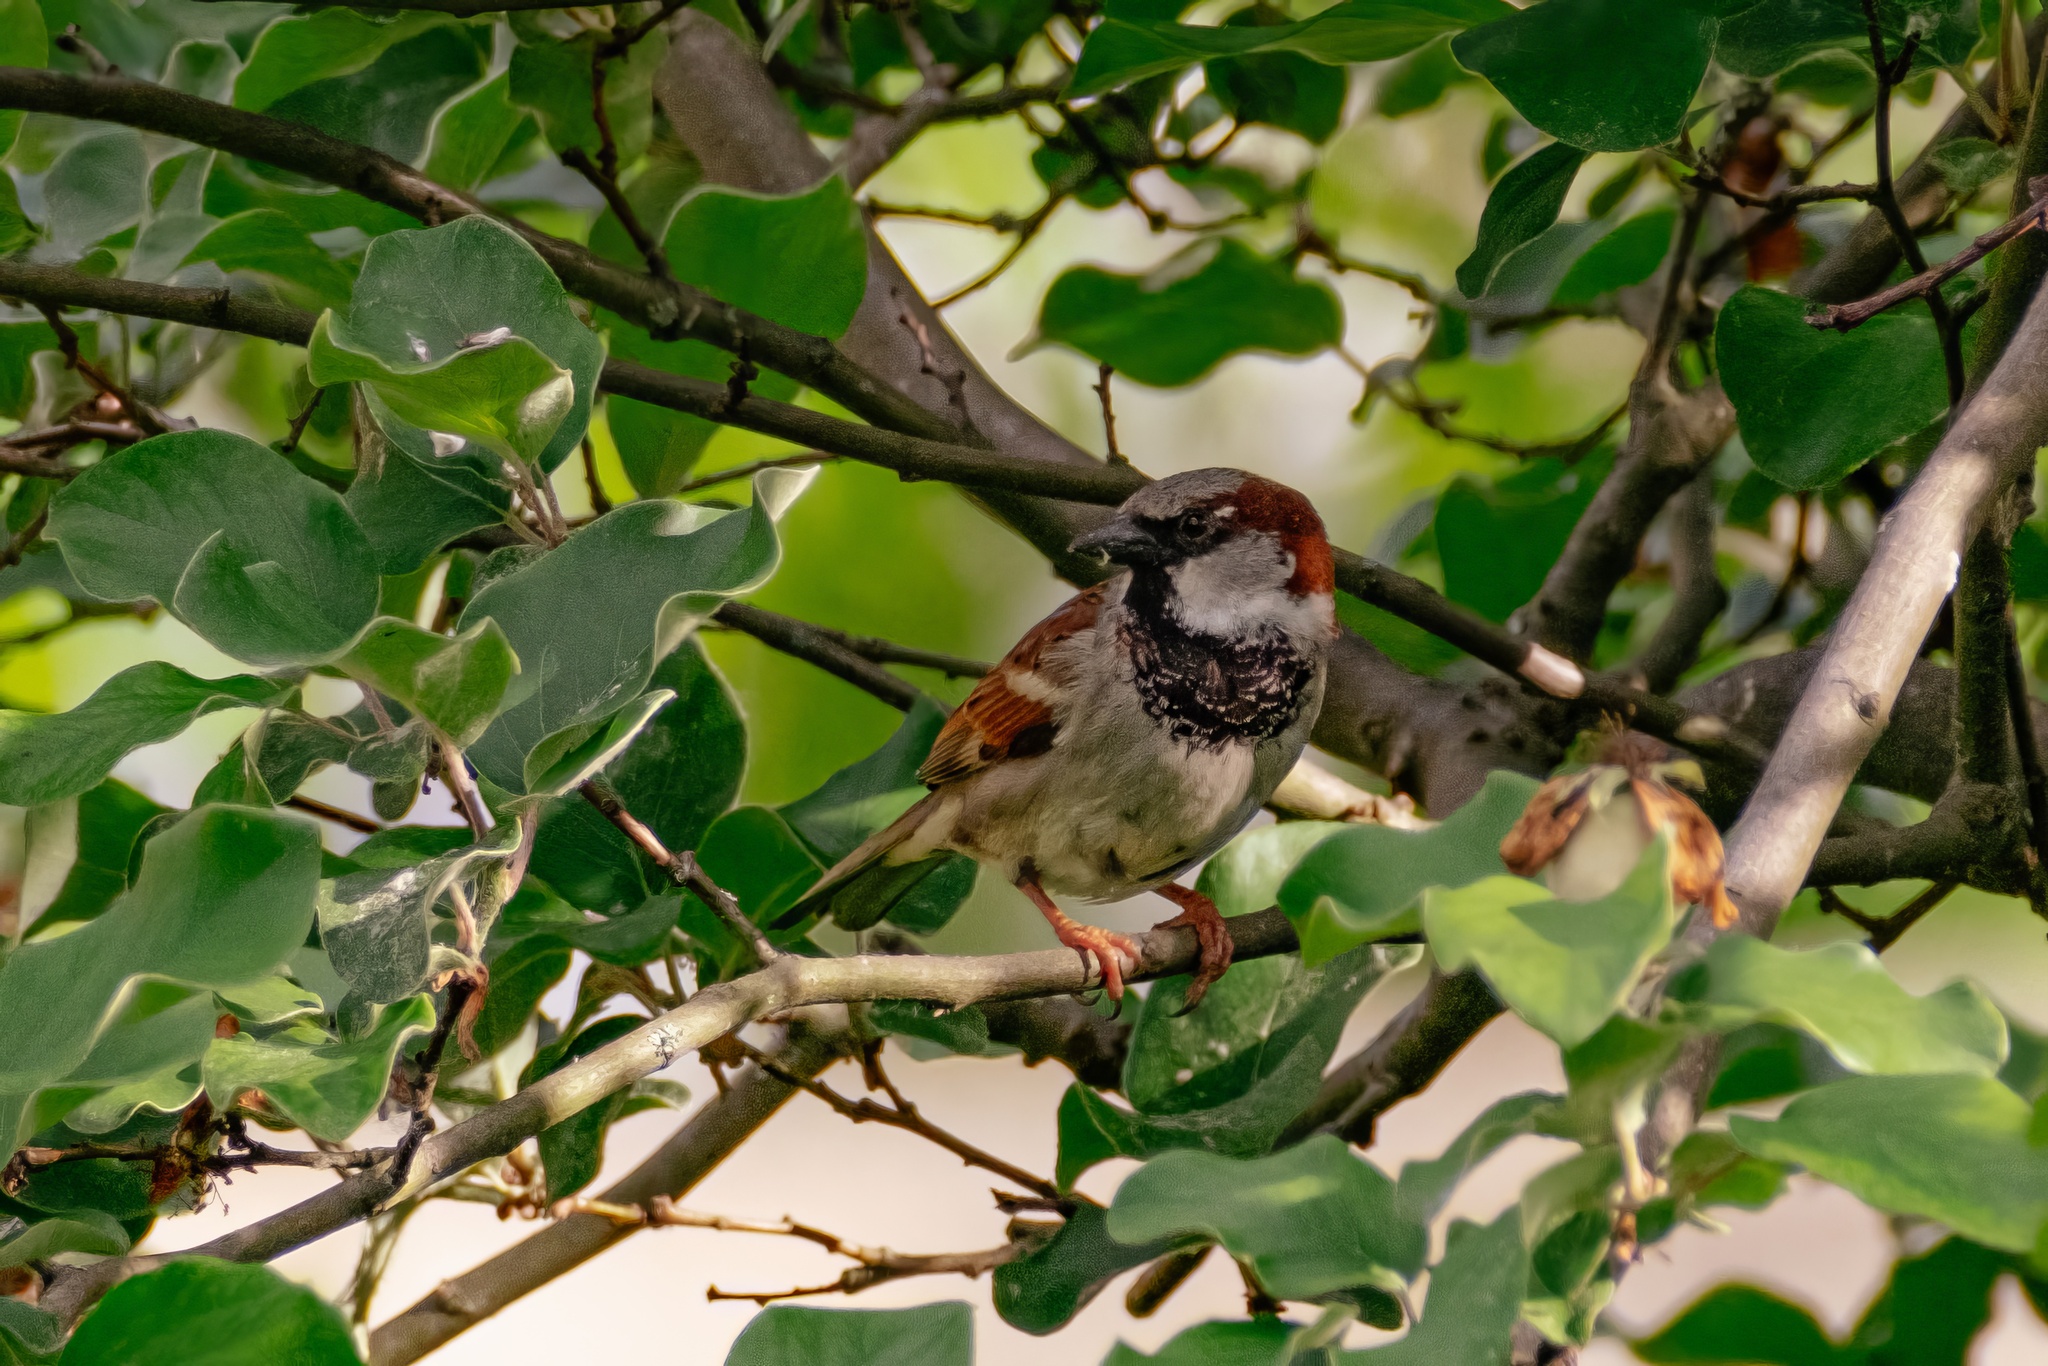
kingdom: Animalia
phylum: Chordata
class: Aves
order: Passeriformes
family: Passeridae
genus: Passer
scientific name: Passer domesticus
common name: House sparrow
